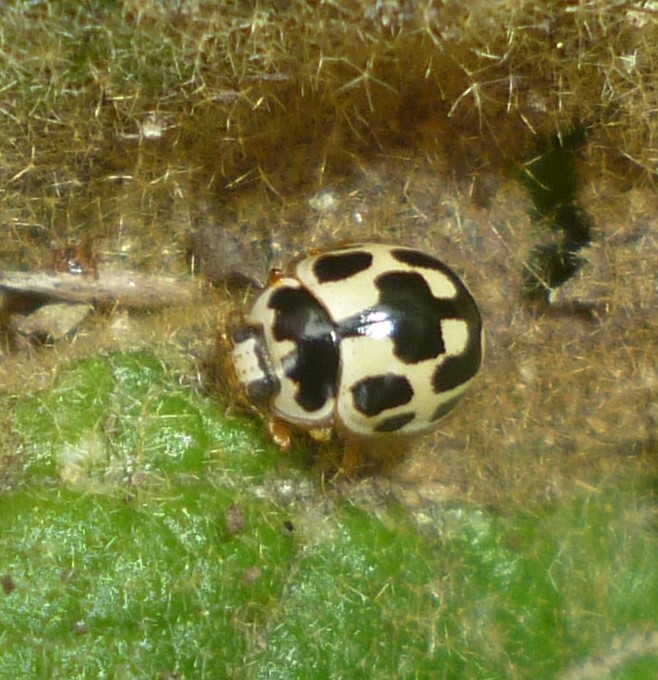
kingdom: Animalia
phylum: Arthropoda
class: Insecta
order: Coleoptera
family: Coccinellidae
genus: Propylaea
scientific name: Propylaea quatuordecimpunctata
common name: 14-spotted ladybird beetle
